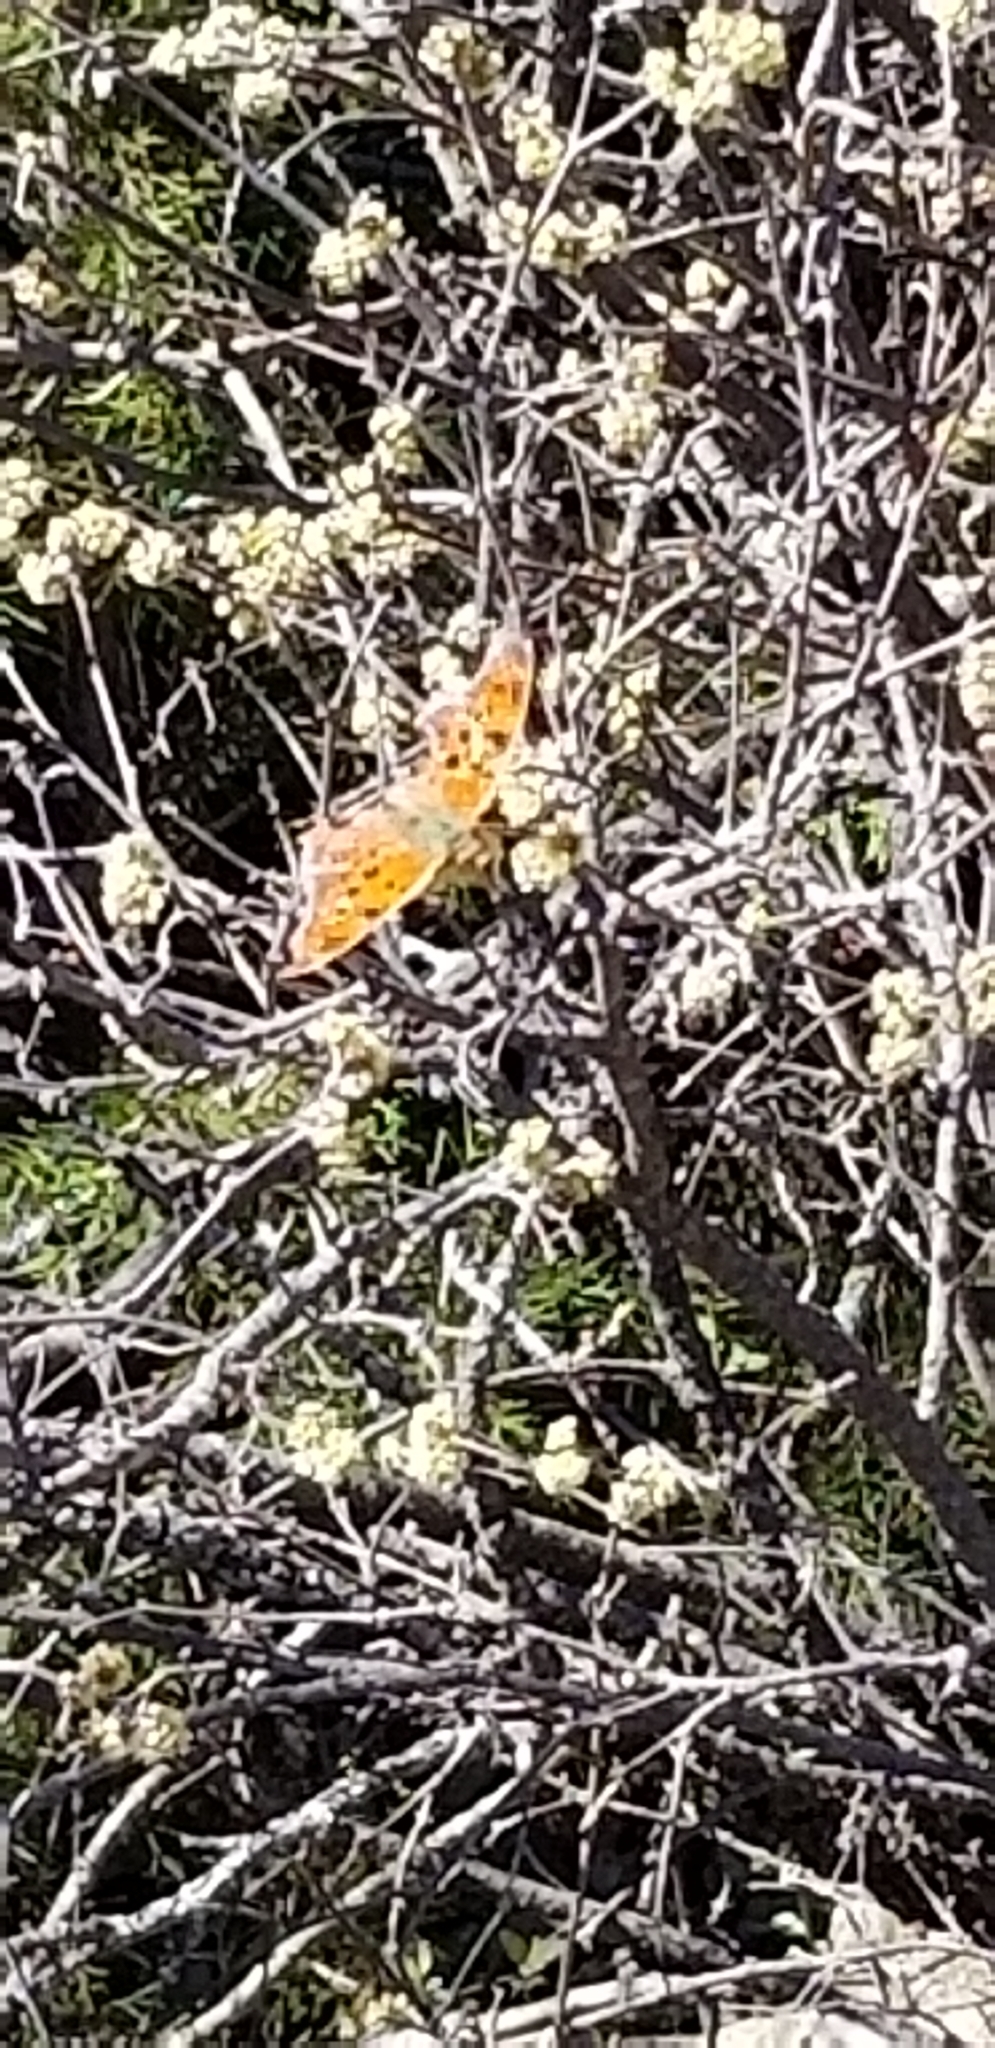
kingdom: Animalia
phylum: Arthropoda
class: Insecta
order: Lepidoptera
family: Nymphalidae
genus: Polygonia
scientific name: Polygonia interrogationis
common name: Question mark
